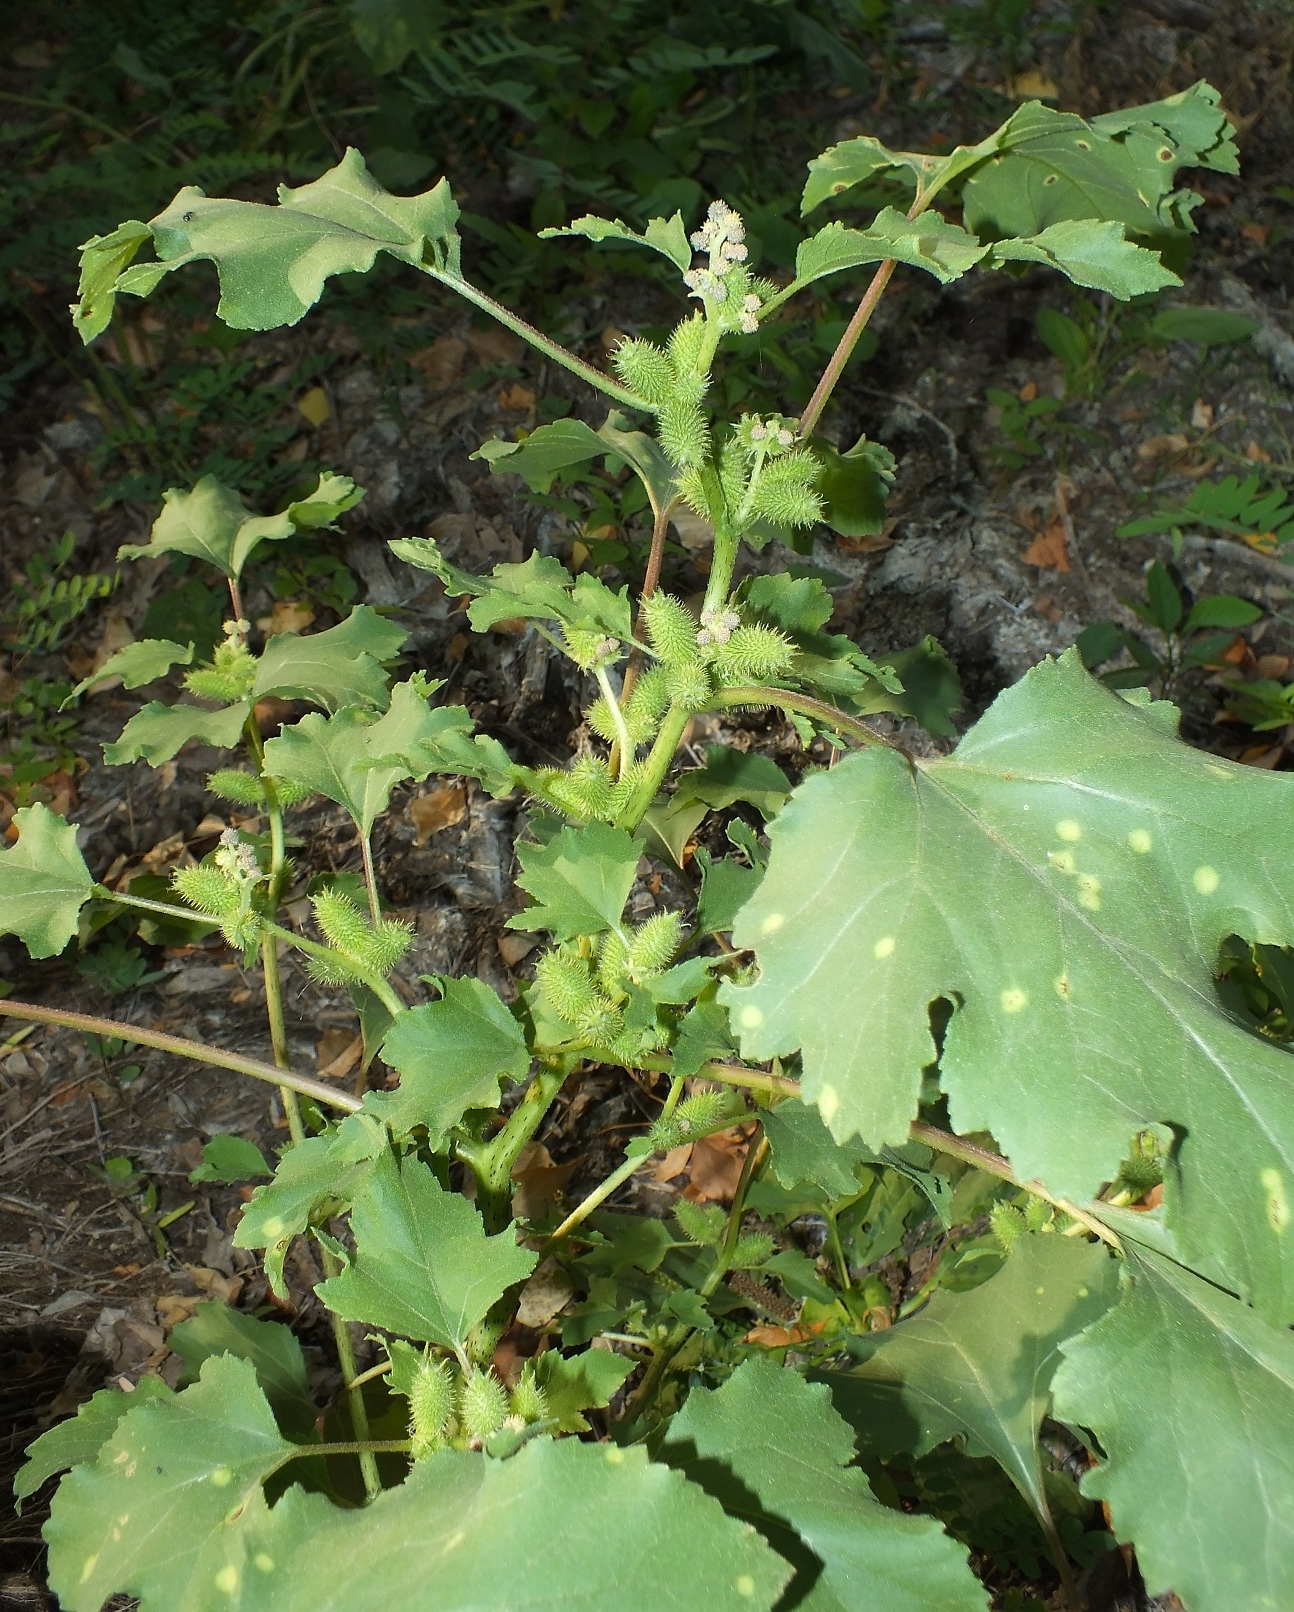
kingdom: Plantae
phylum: Tracheophyta
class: Magnoliopsida
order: Asterales
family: Asteraceae
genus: Xanthium
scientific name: Xanthium orientale
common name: Californian burr
